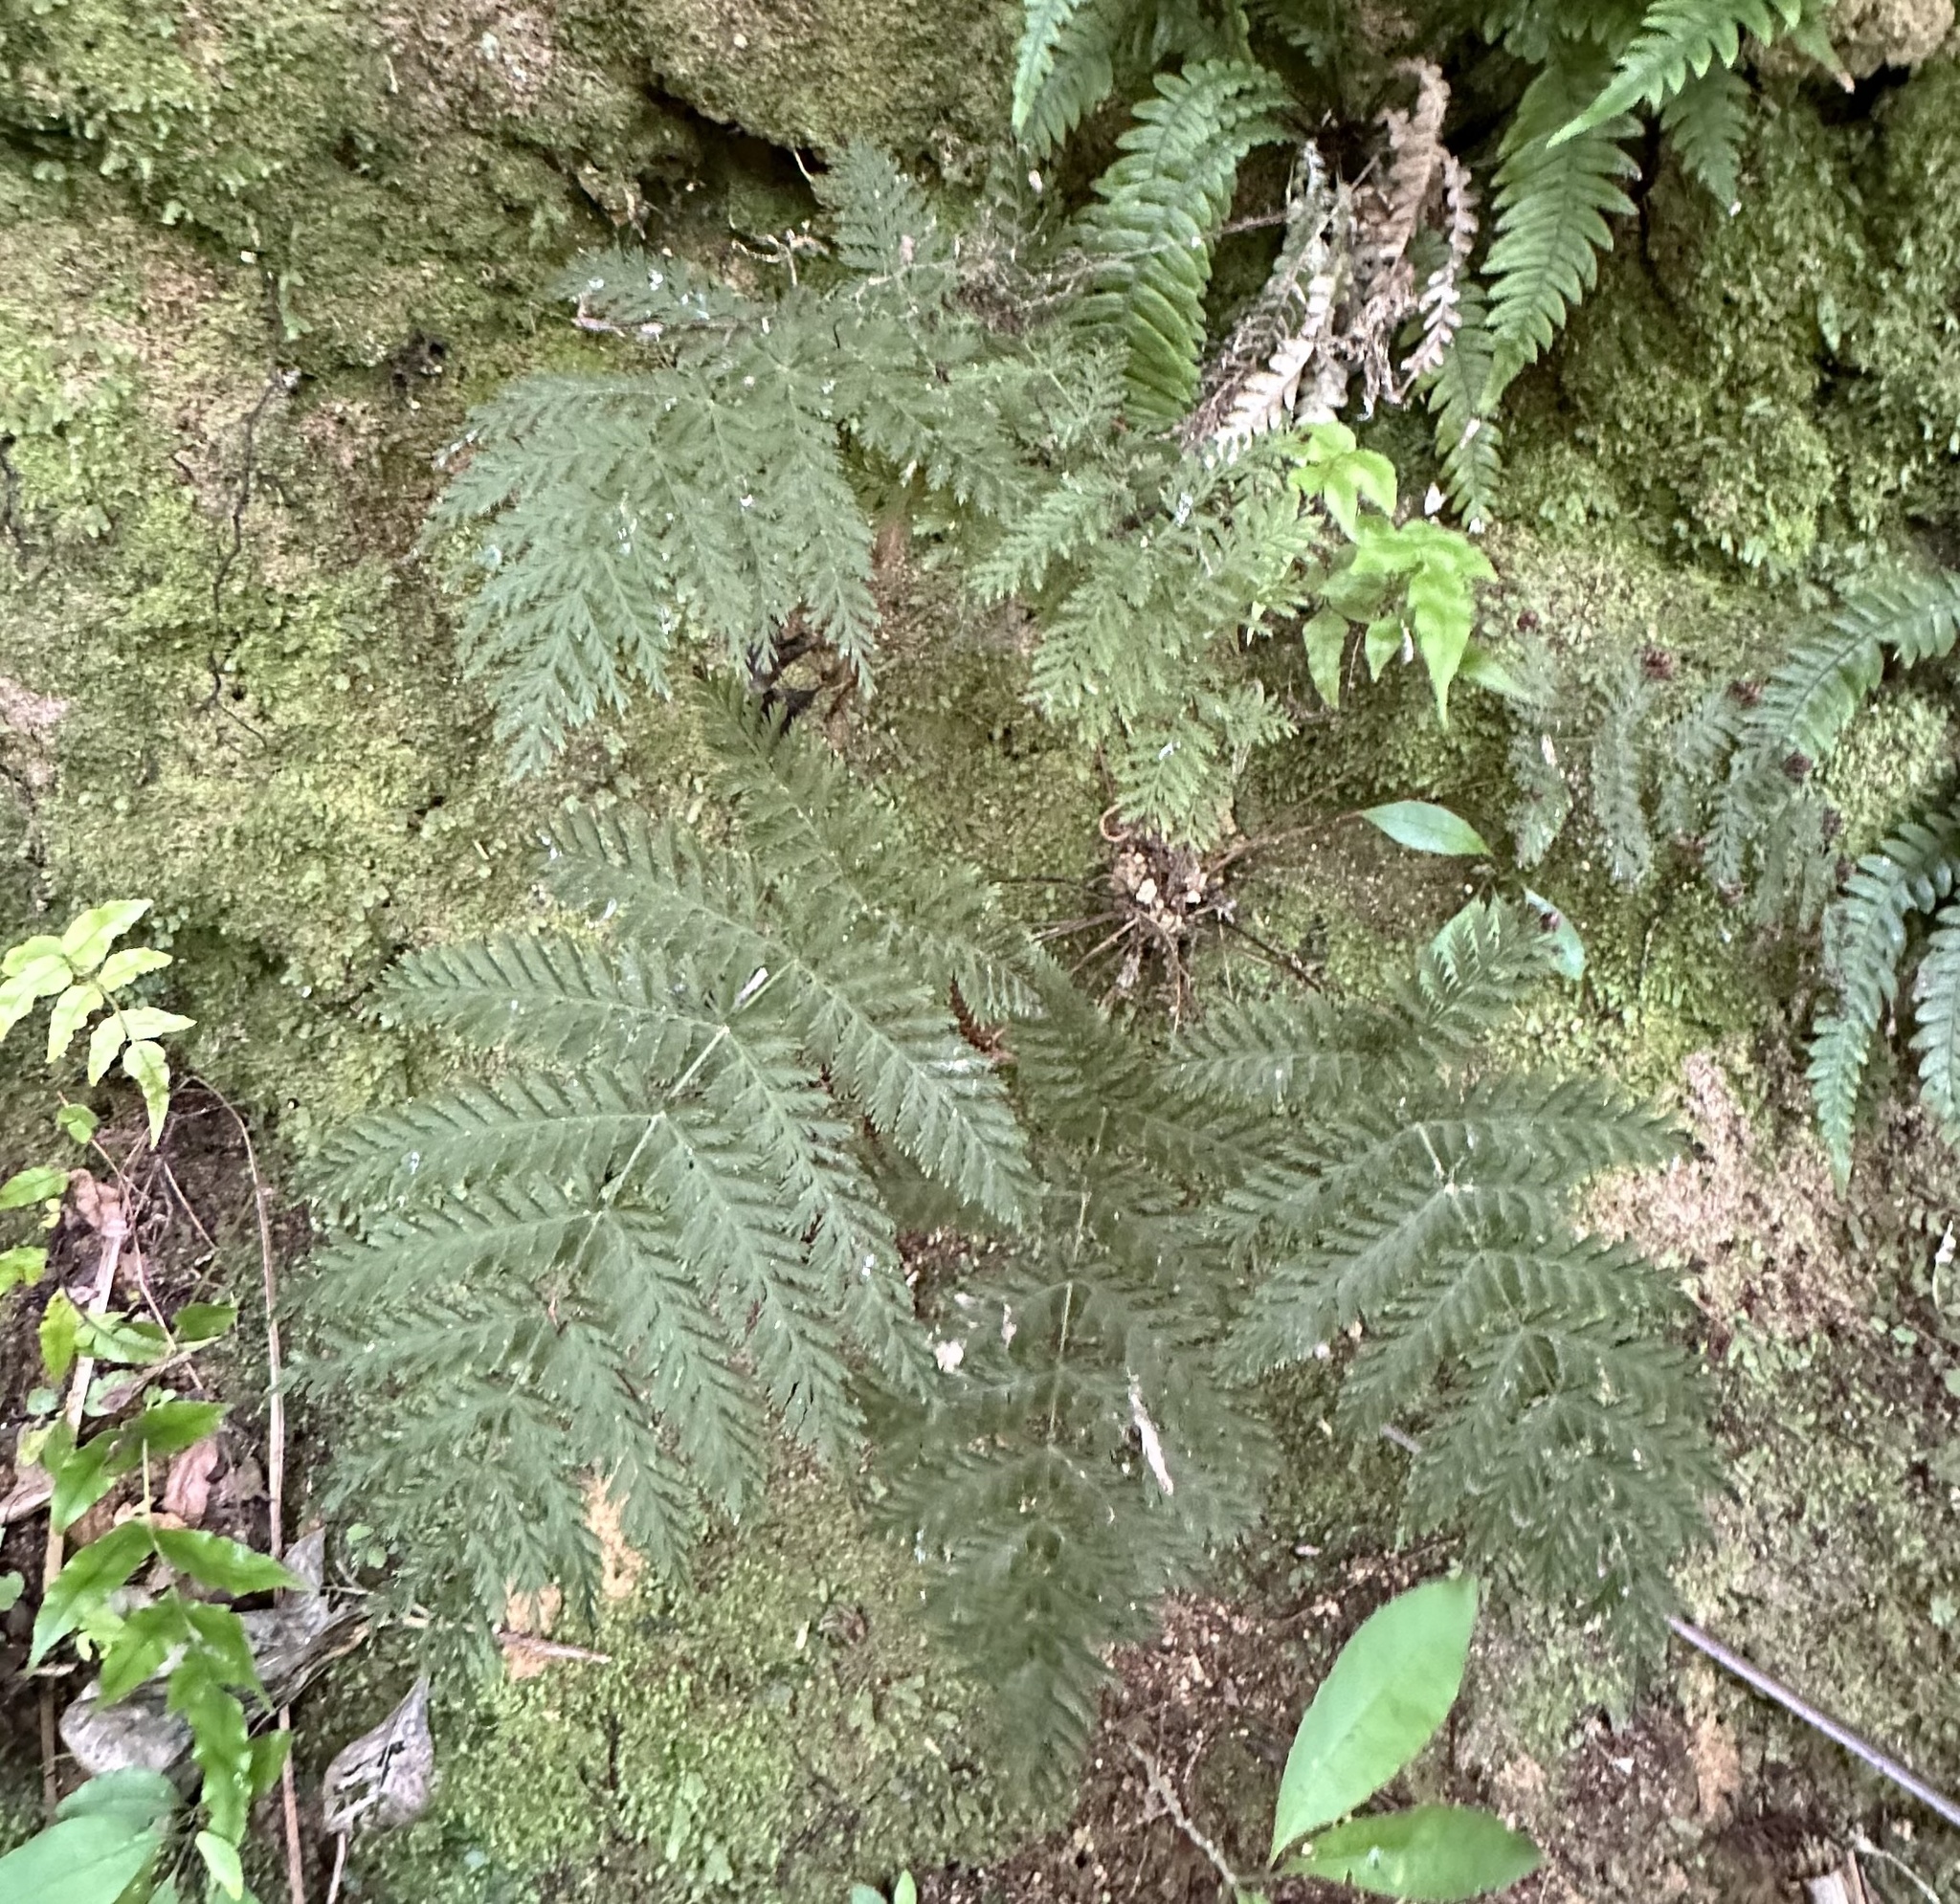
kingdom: Plantae
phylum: Tracheophyta
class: Polypodiopsida
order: Osmundales
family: Osmundaceae
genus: Leptopteris
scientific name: Leptopteris hymenophylloides
